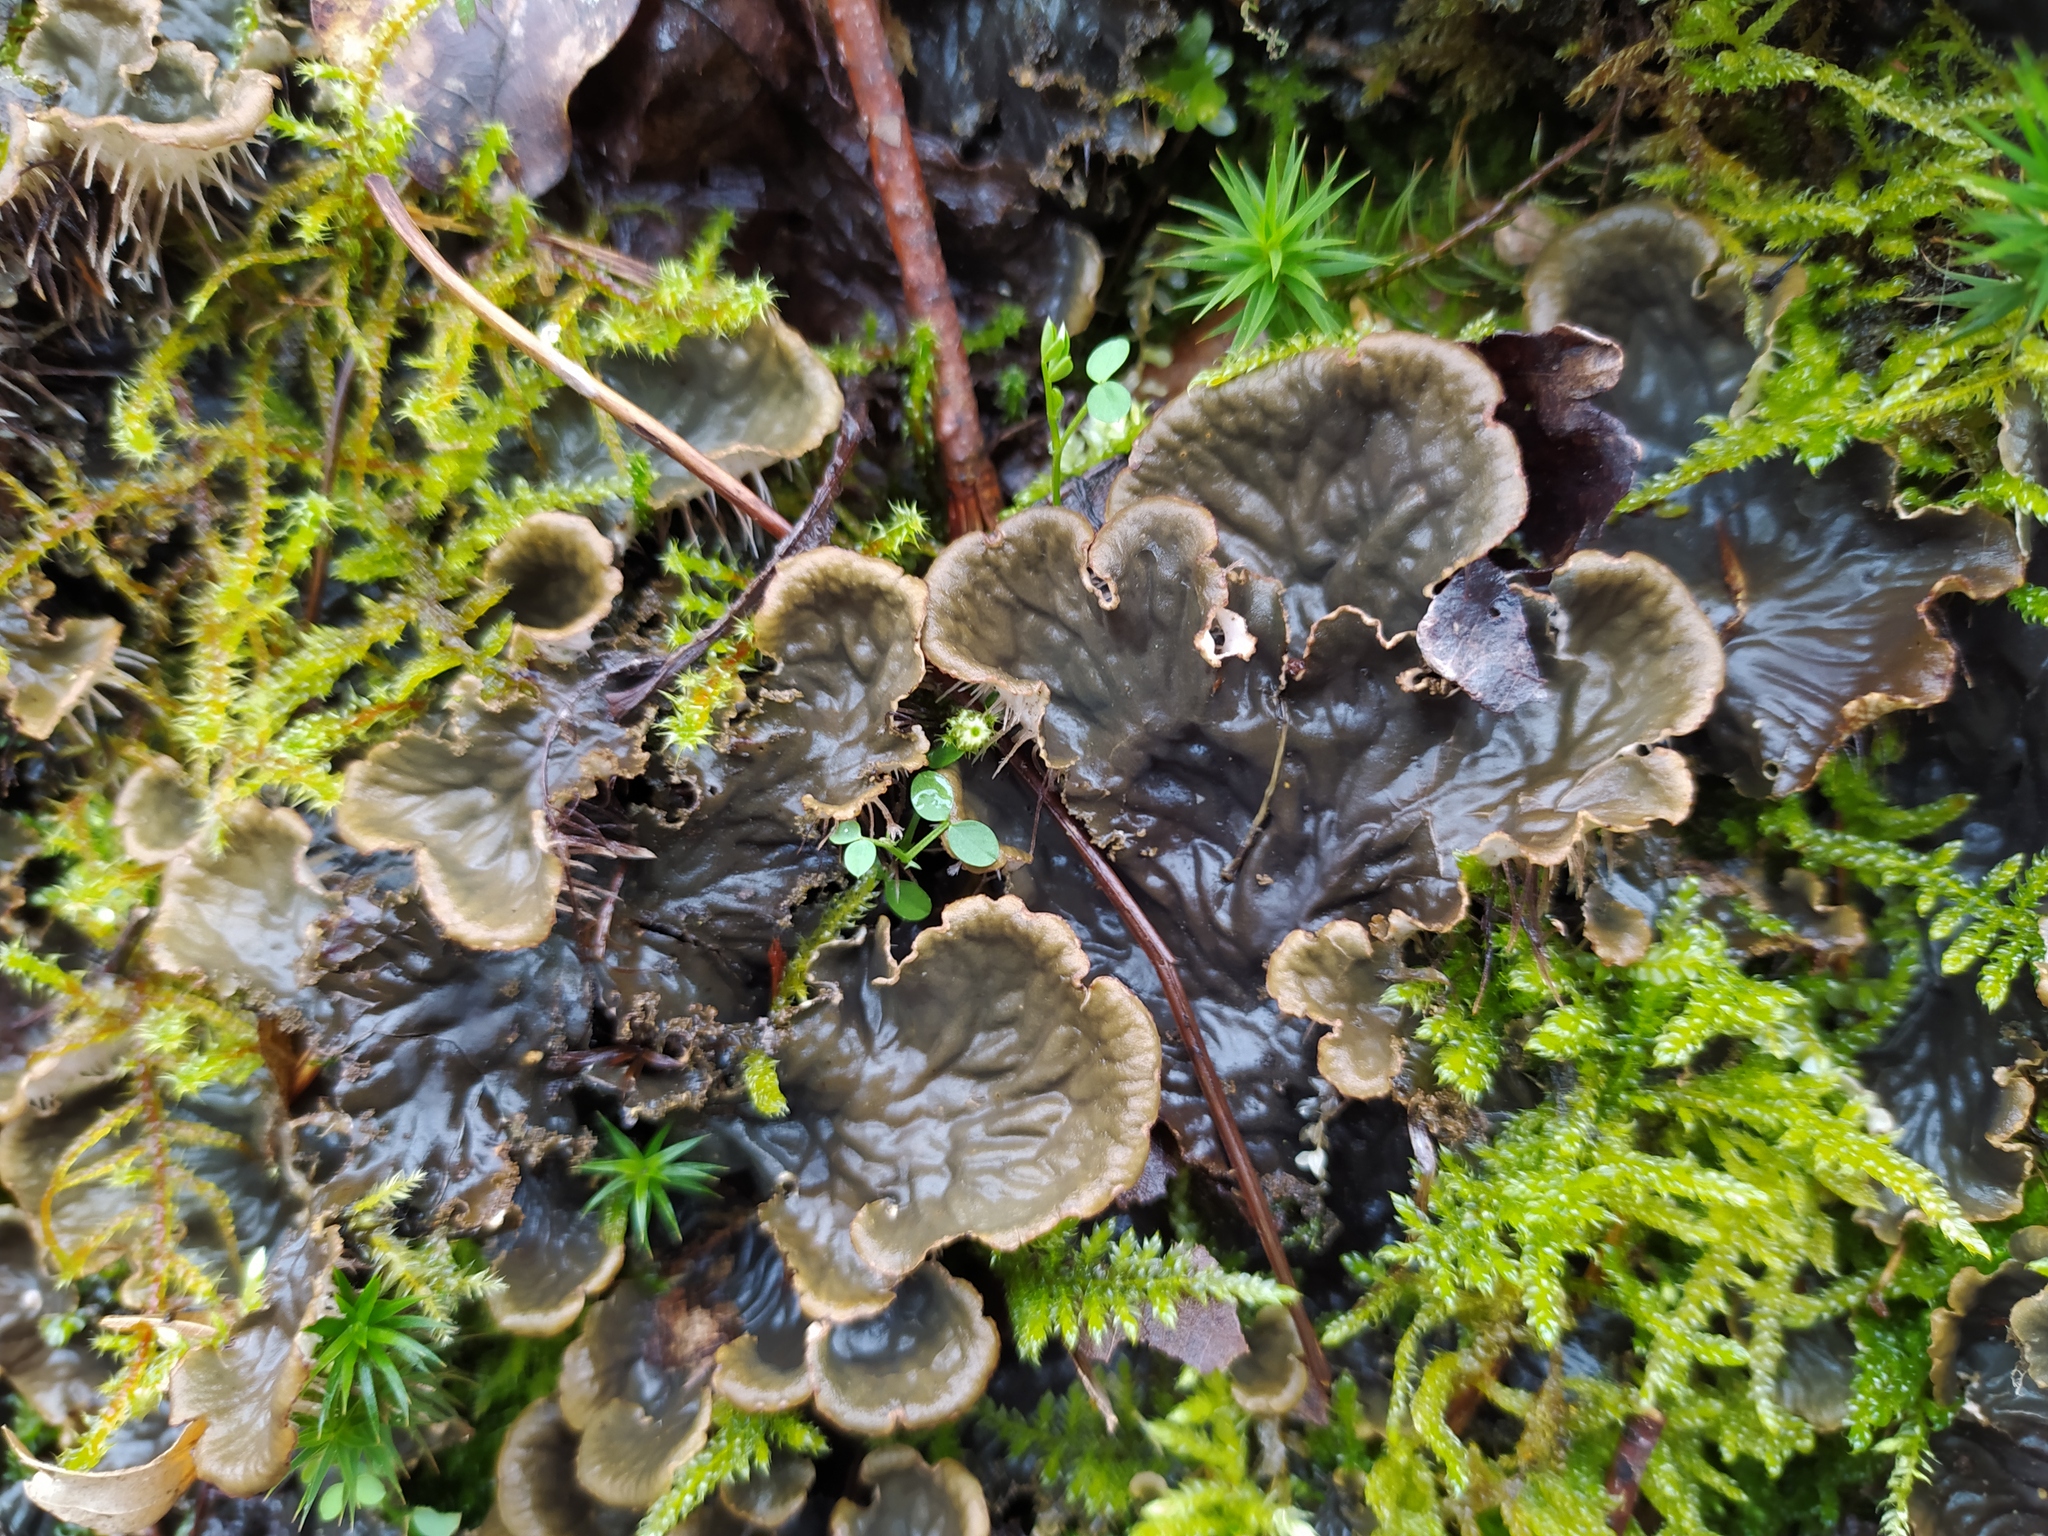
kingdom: Fungi
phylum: Ascomycota
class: Lecanoromycetes
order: Peltigerales
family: Peltigeraceae
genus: Peltigera
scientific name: Peltigera praetextata
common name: Scaly dog-lichen
